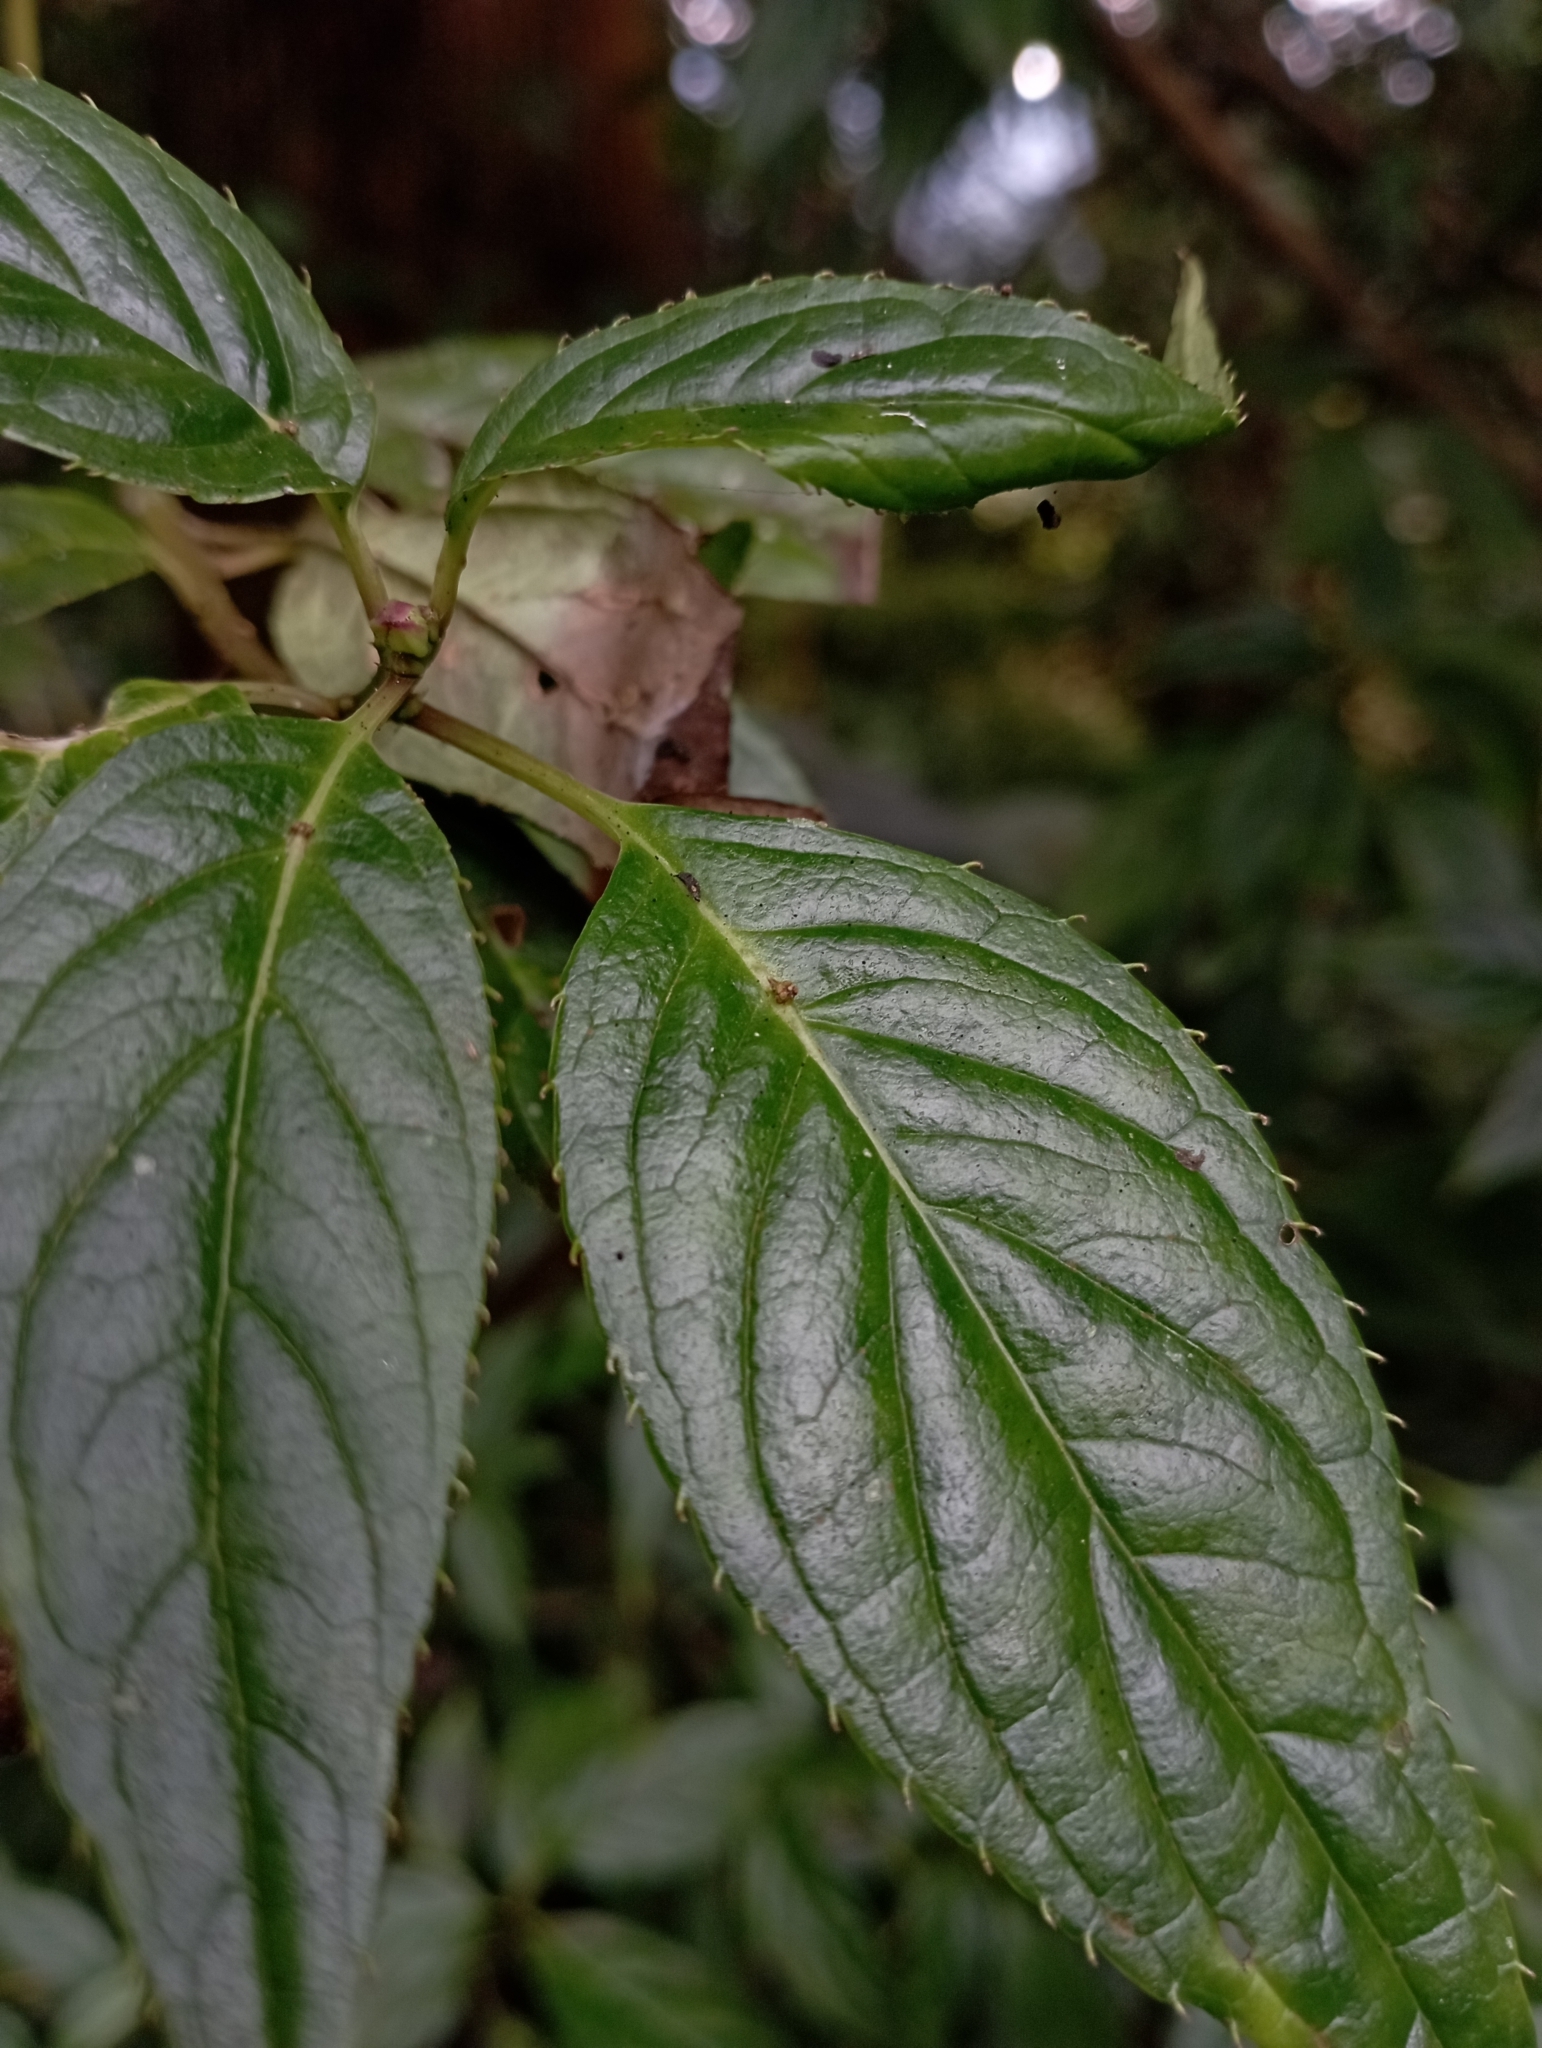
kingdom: Plantae
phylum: Tracheophyta
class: Magnoliopsida
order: Aquifoliales
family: Helwingiaceae
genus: Helwingia
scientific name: Helwingia japonica
